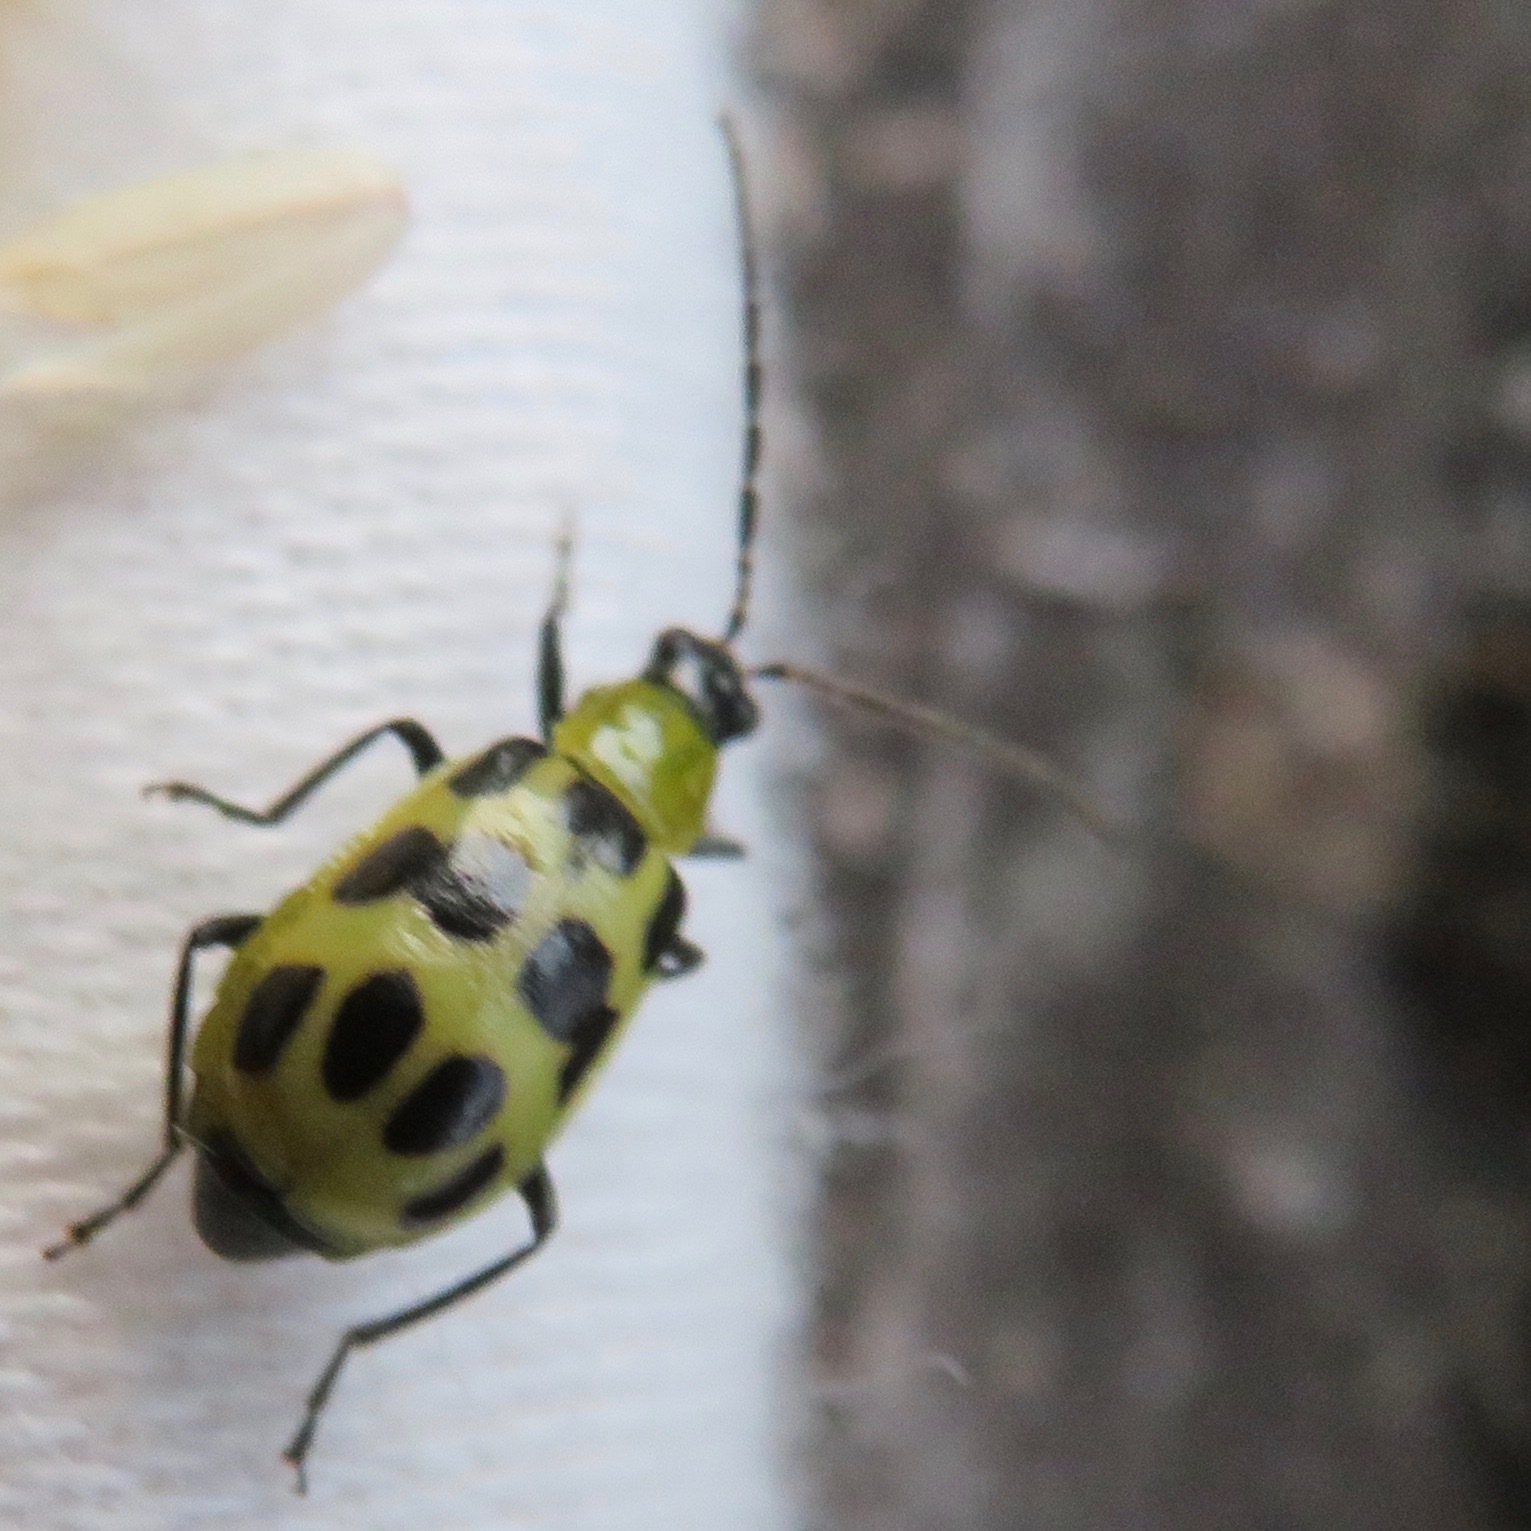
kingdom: Animalia
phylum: Arthropoda
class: Insecta
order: Coleoptera
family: Chrysomelidae
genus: Diabrotica
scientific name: Diabrotica undecimpunctata
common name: Spotted cucumber beetle
